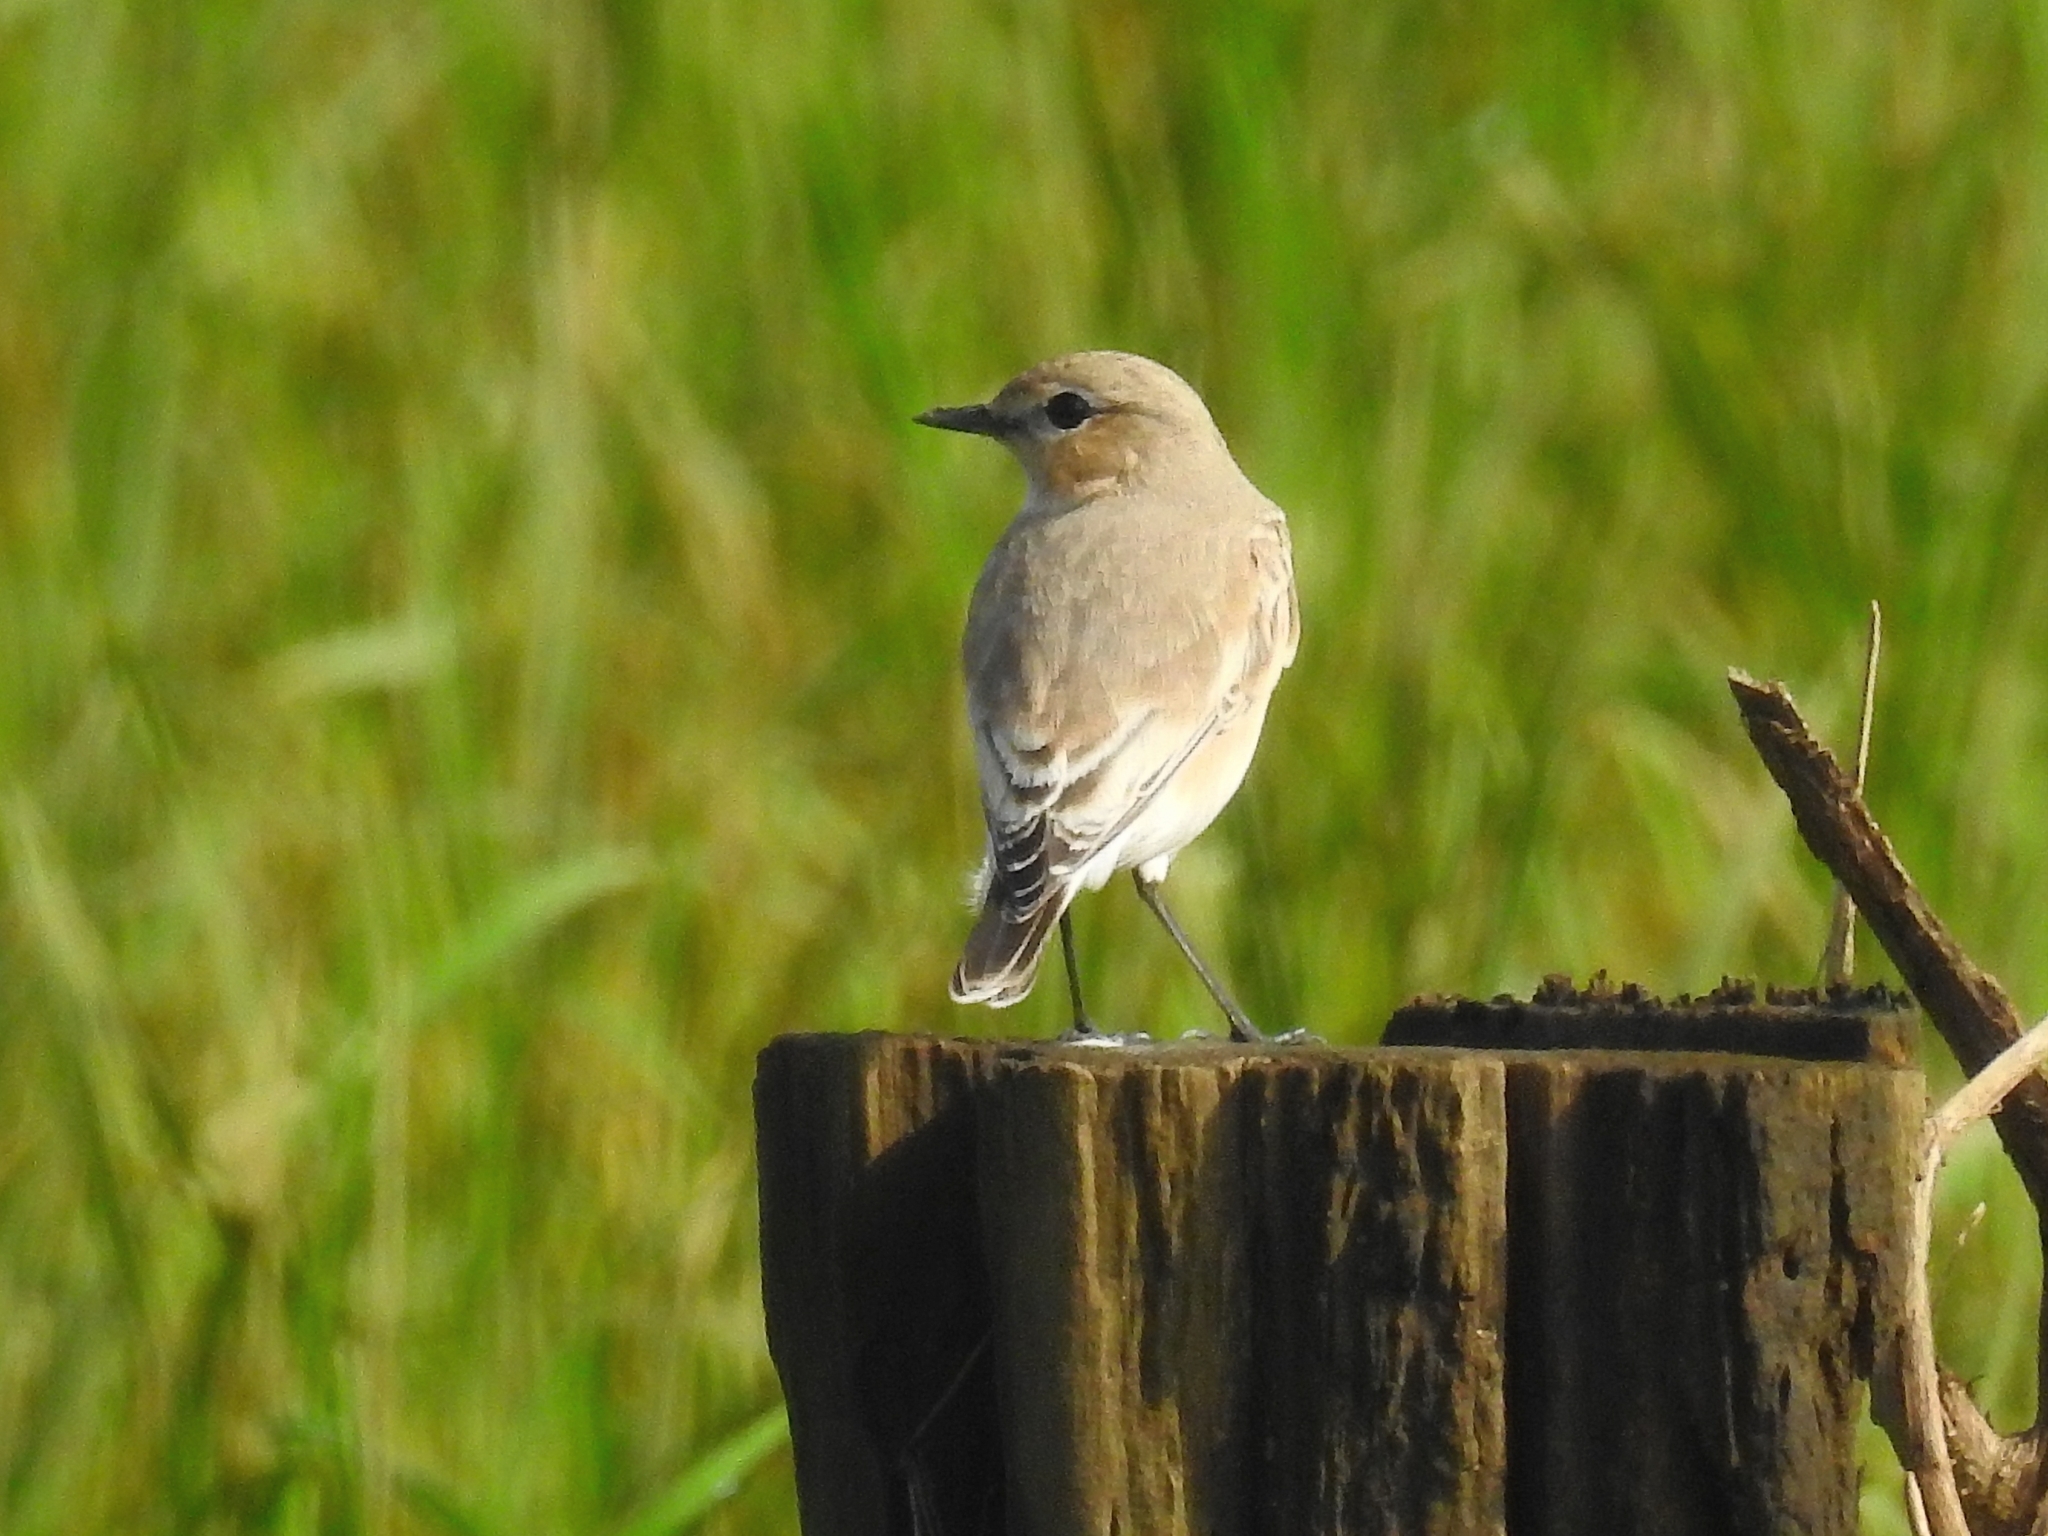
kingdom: Animalia
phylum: Chordata
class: Aves
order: Passeriformes
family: Muscicapidae
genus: Oenanthe
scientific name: Oenanthe isabellina
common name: Isabelline wheatear
